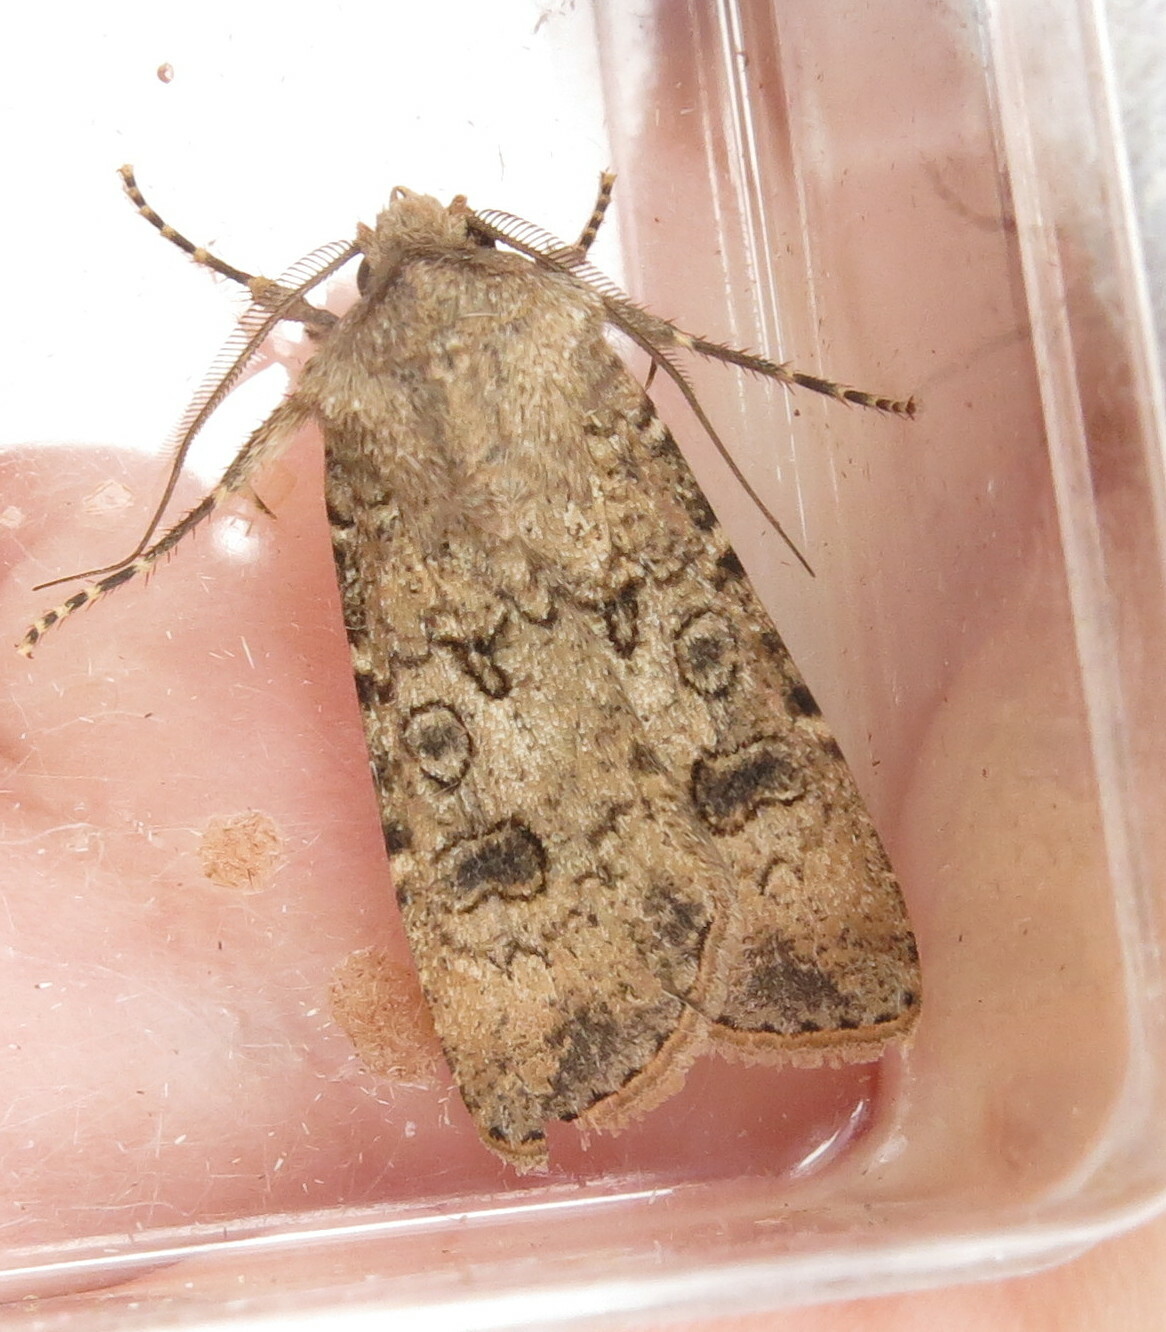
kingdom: Animalia
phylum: Arthropoda
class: Insecta
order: Lepidoptera
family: Noctuidae
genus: Agrotis
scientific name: Agrotis segetum
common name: Turnip moth
